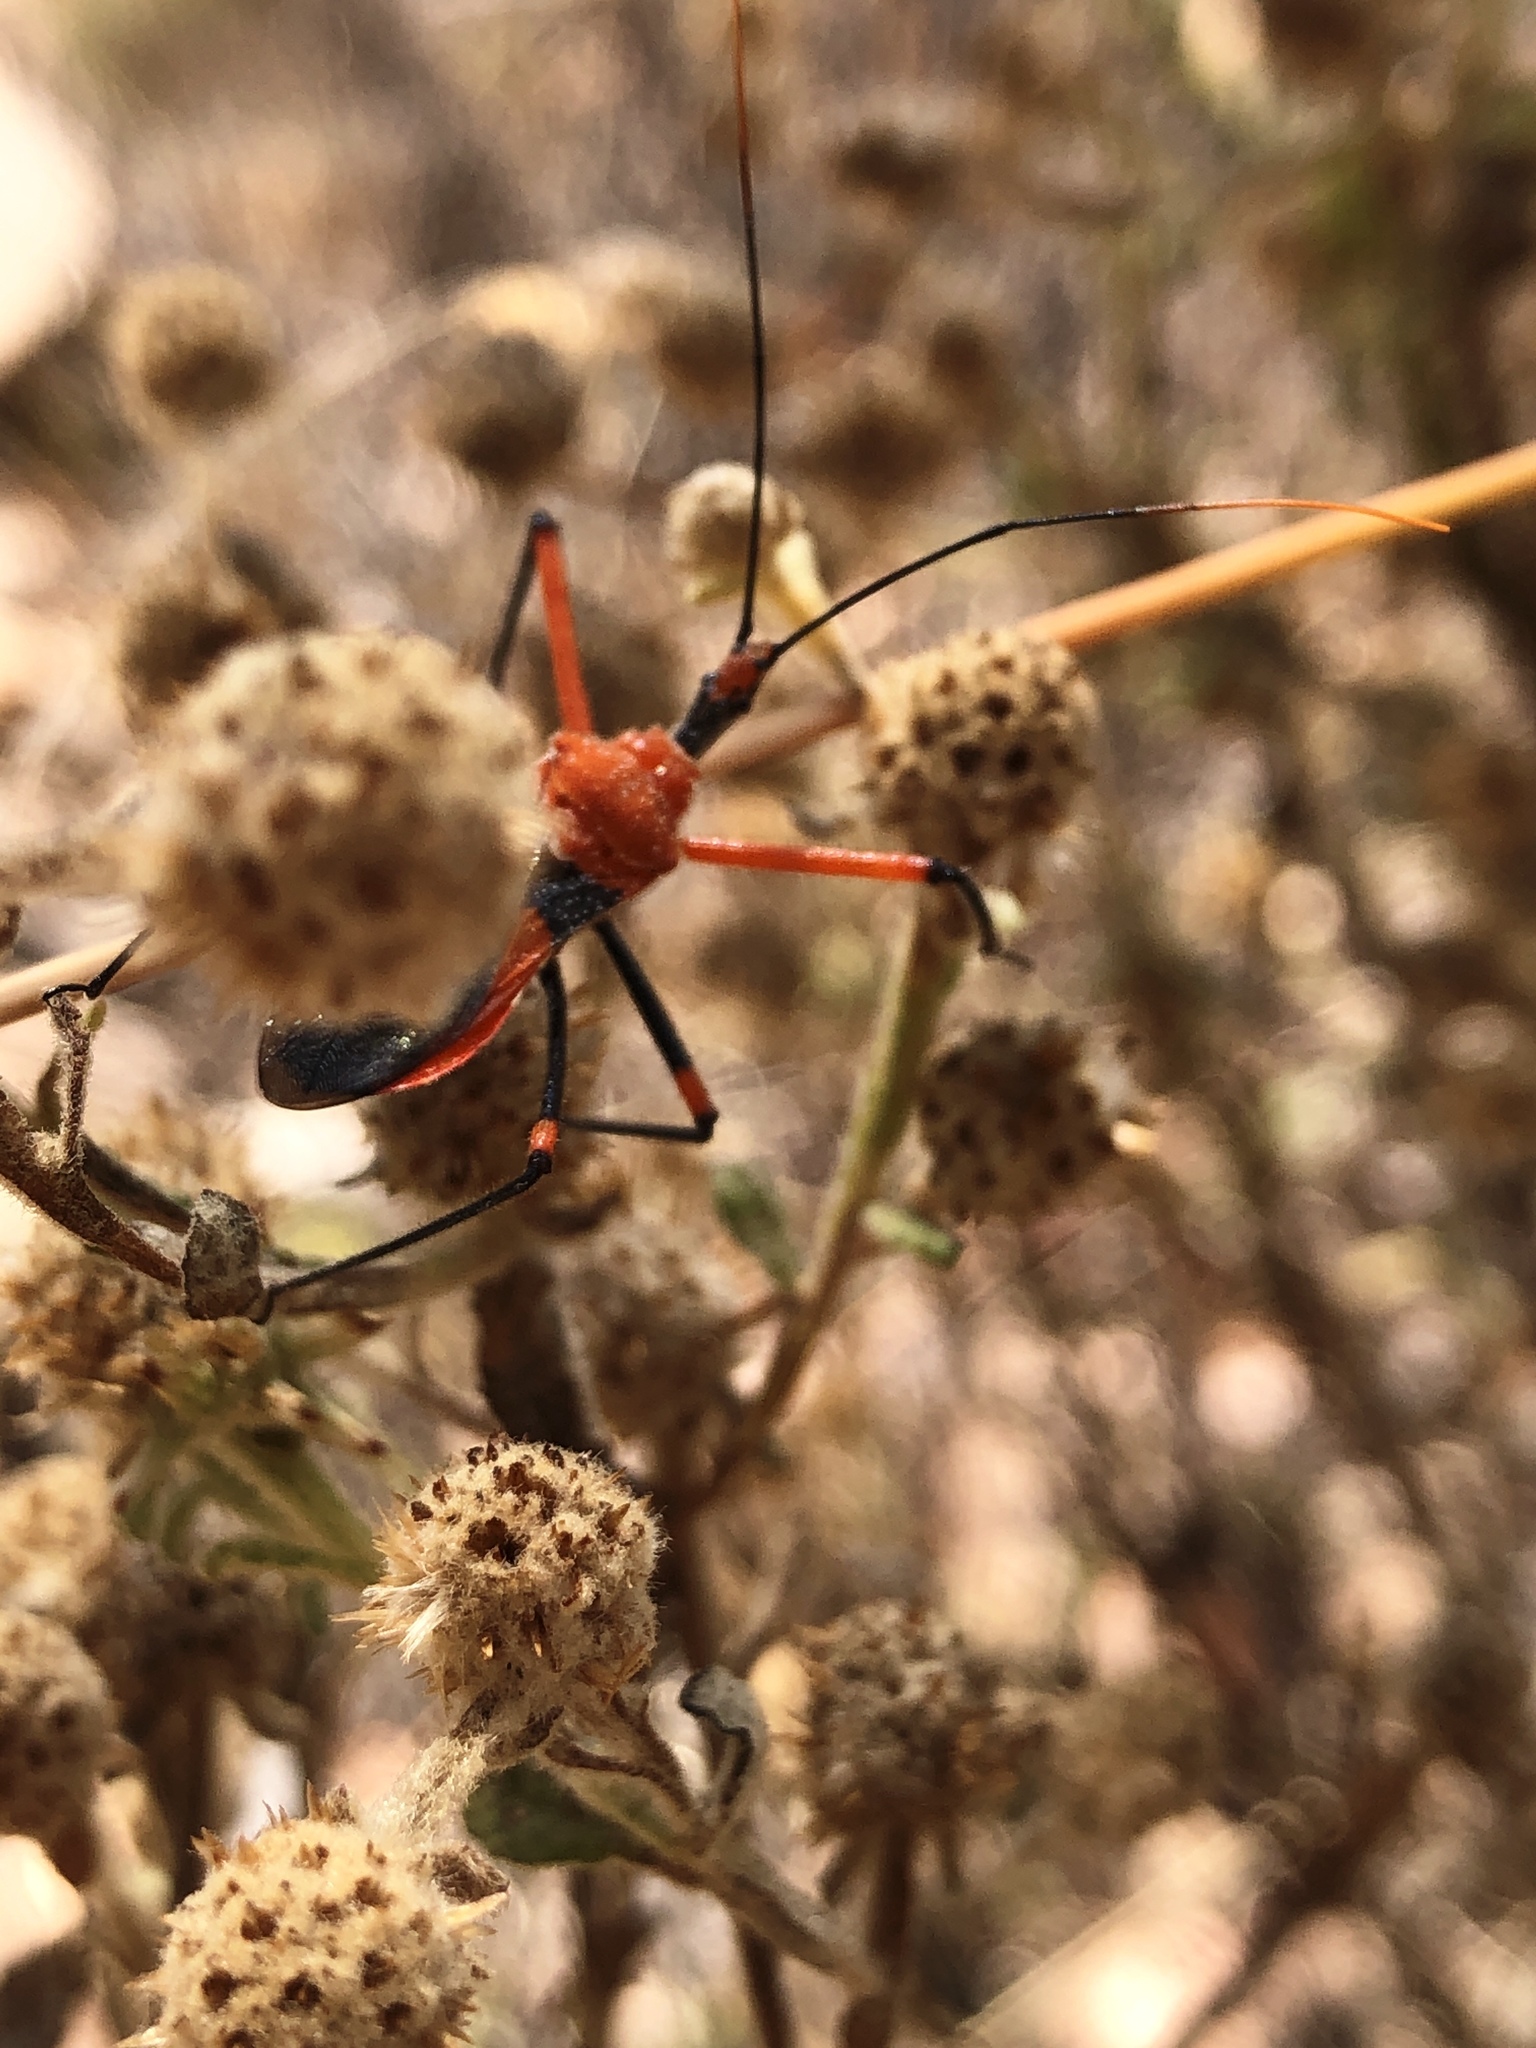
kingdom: Animalia
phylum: Arthropoda
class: Insecta
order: Hemiptera
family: Reduviidae
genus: Poecilobdallus
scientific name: Poecilobdallus formosus
